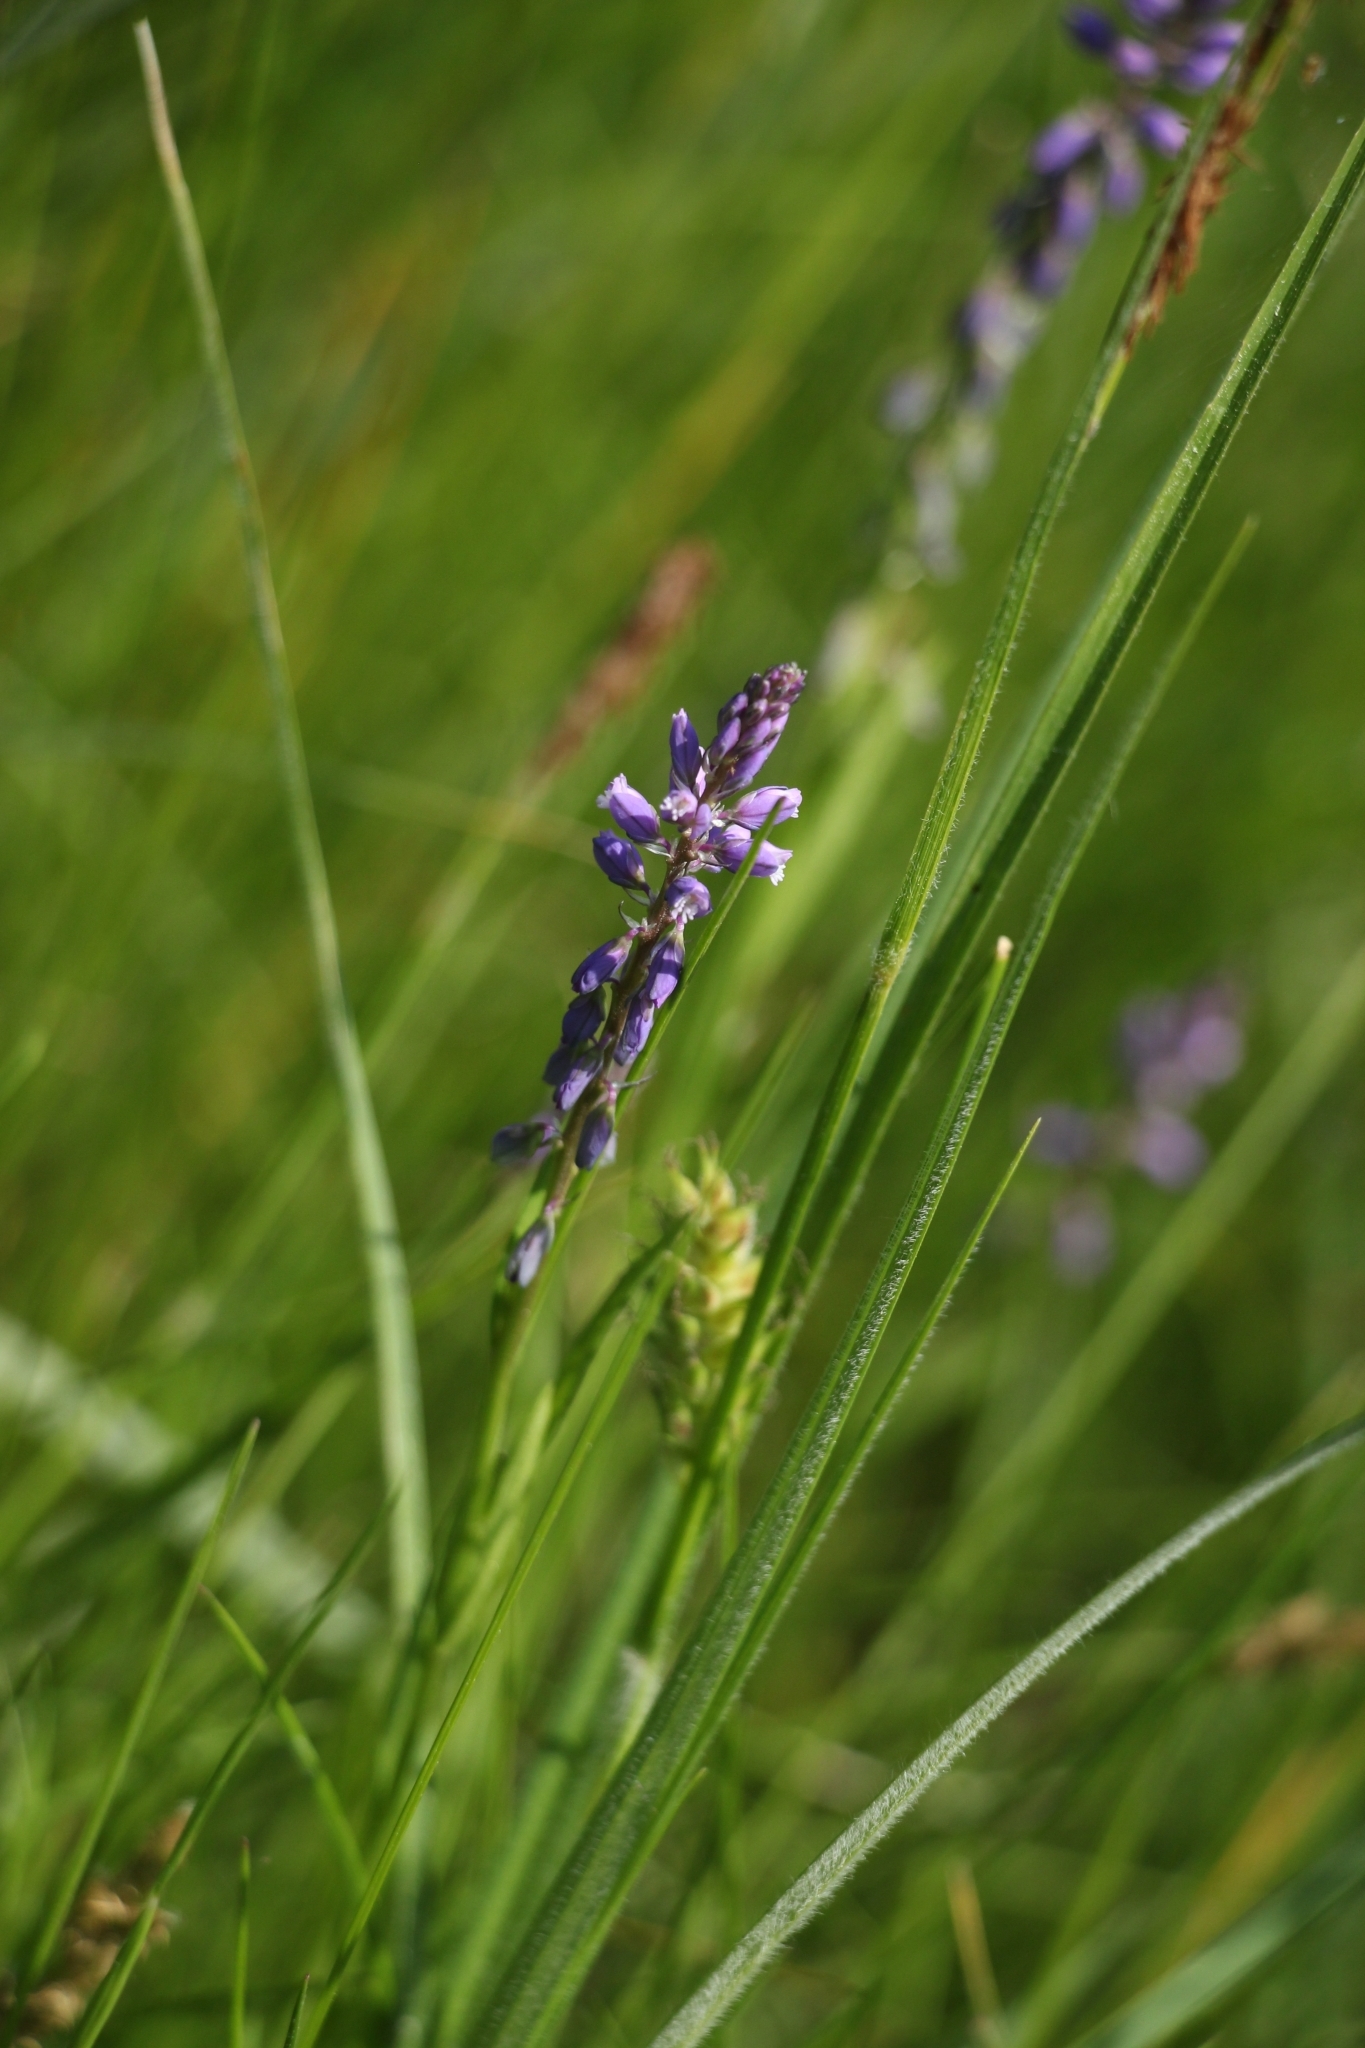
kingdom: Plantae
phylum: Tracheophyta
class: Magnoliopsida
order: Fabales
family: Polygalaceae
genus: Polygala
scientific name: Polygala comosa
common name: Tufted milkwort
